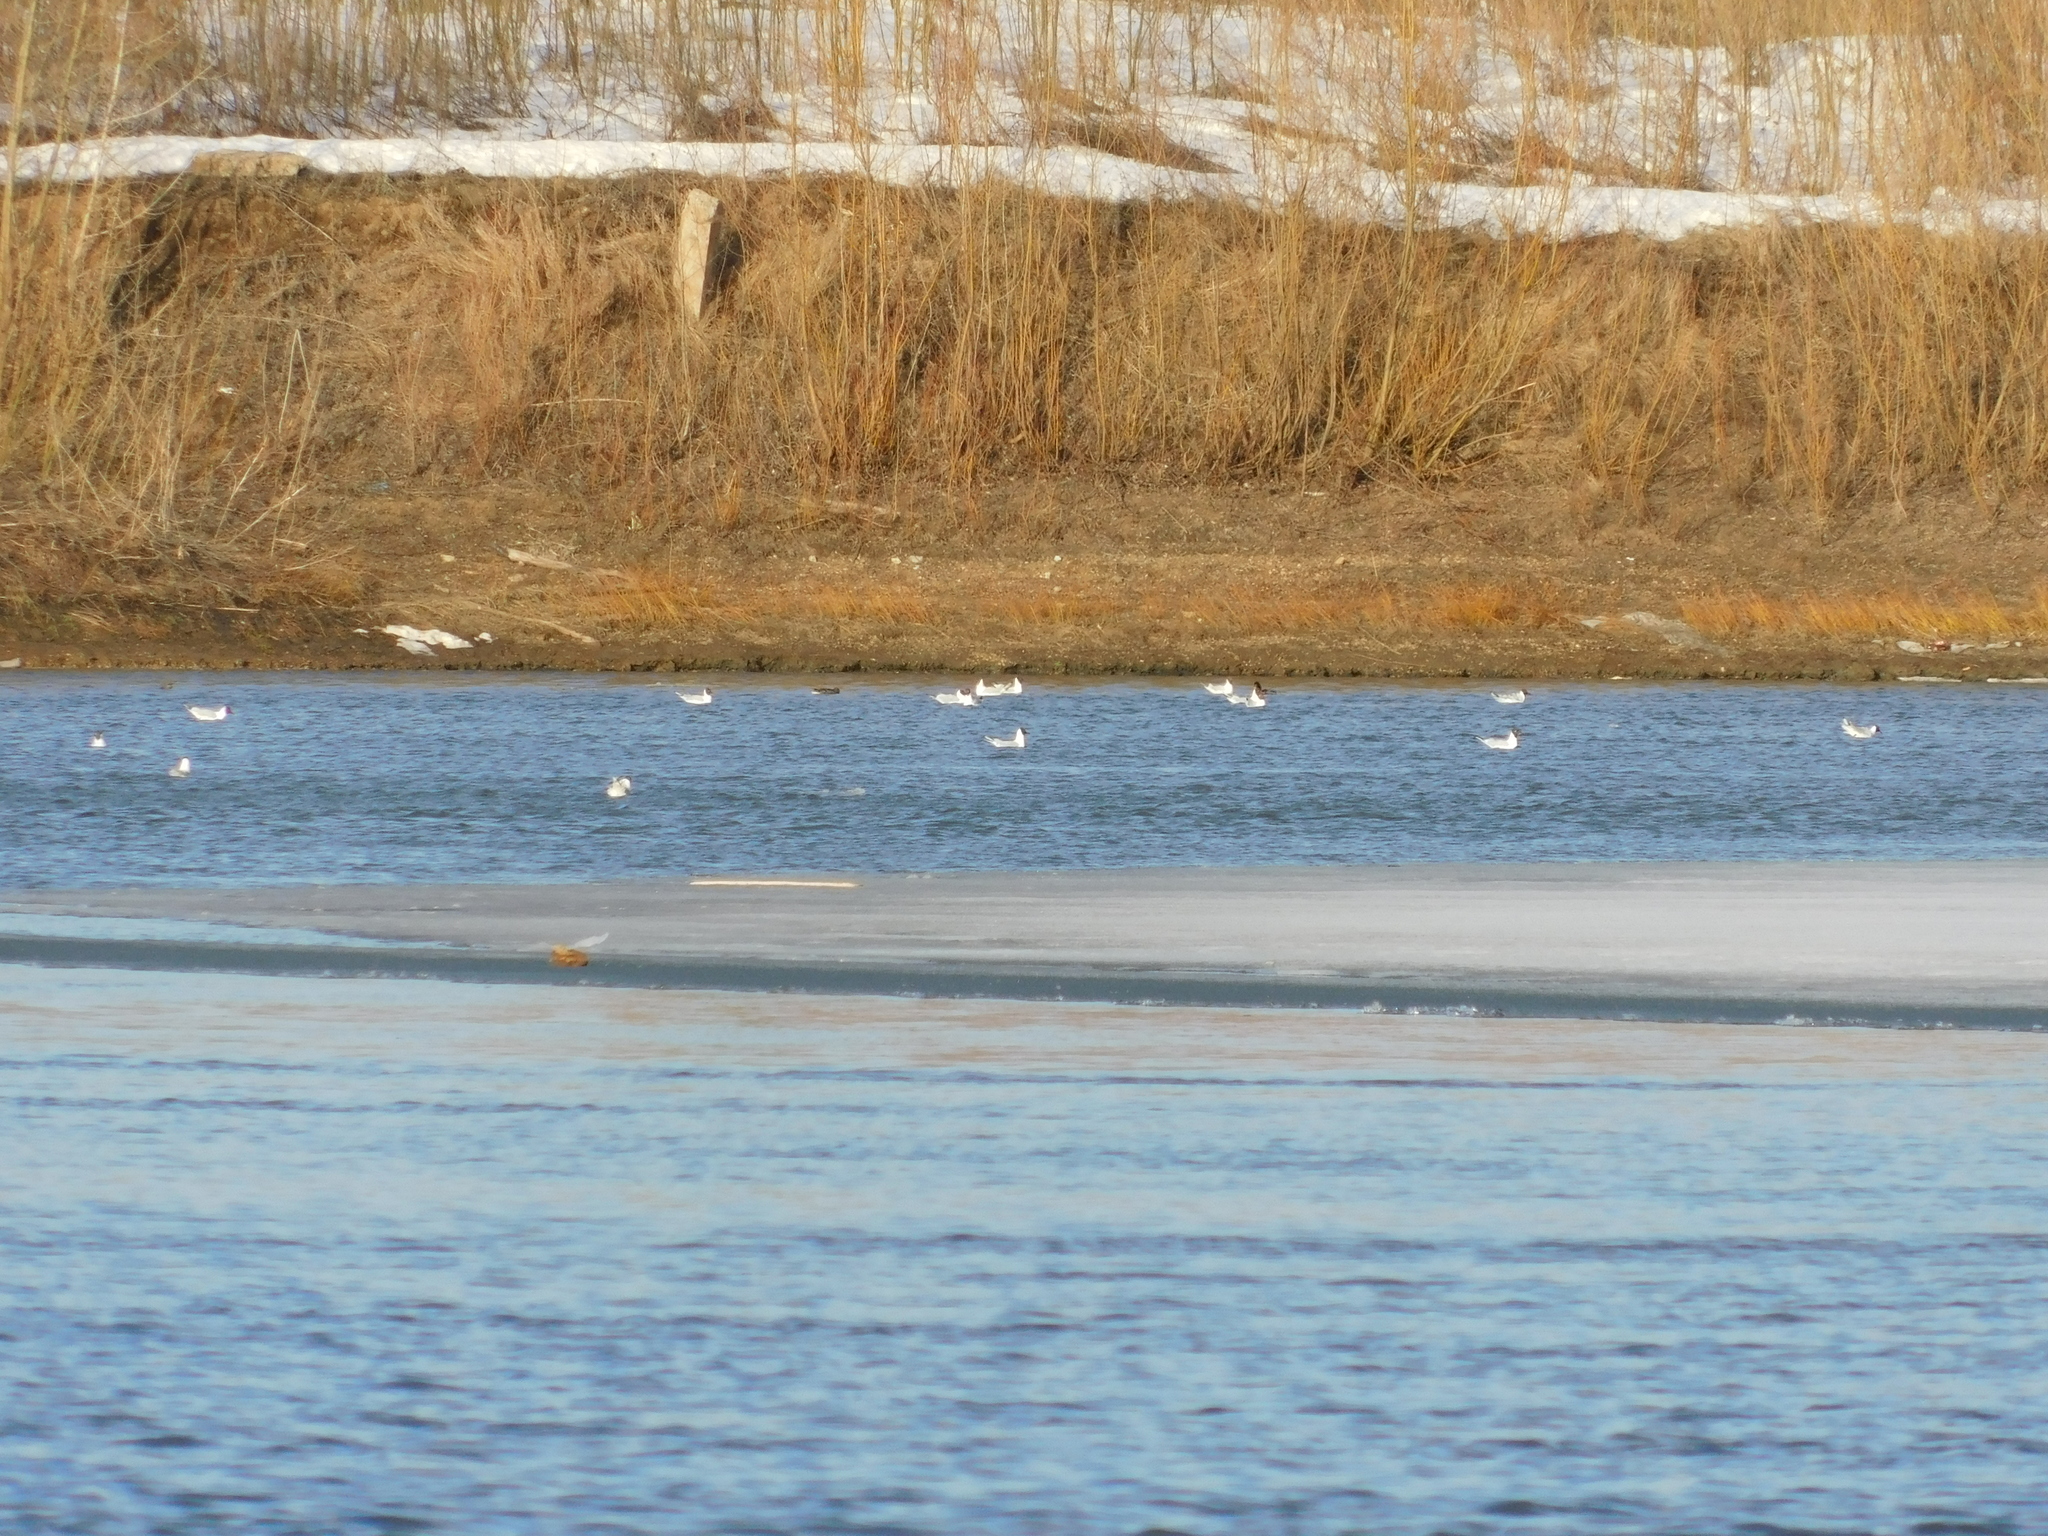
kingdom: Animalia
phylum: Chordata
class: Aves
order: Charadriiformes
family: Laridae
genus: Chroicocephalus
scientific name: Chroicocephalus ridibundus
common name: Black-headed gull
